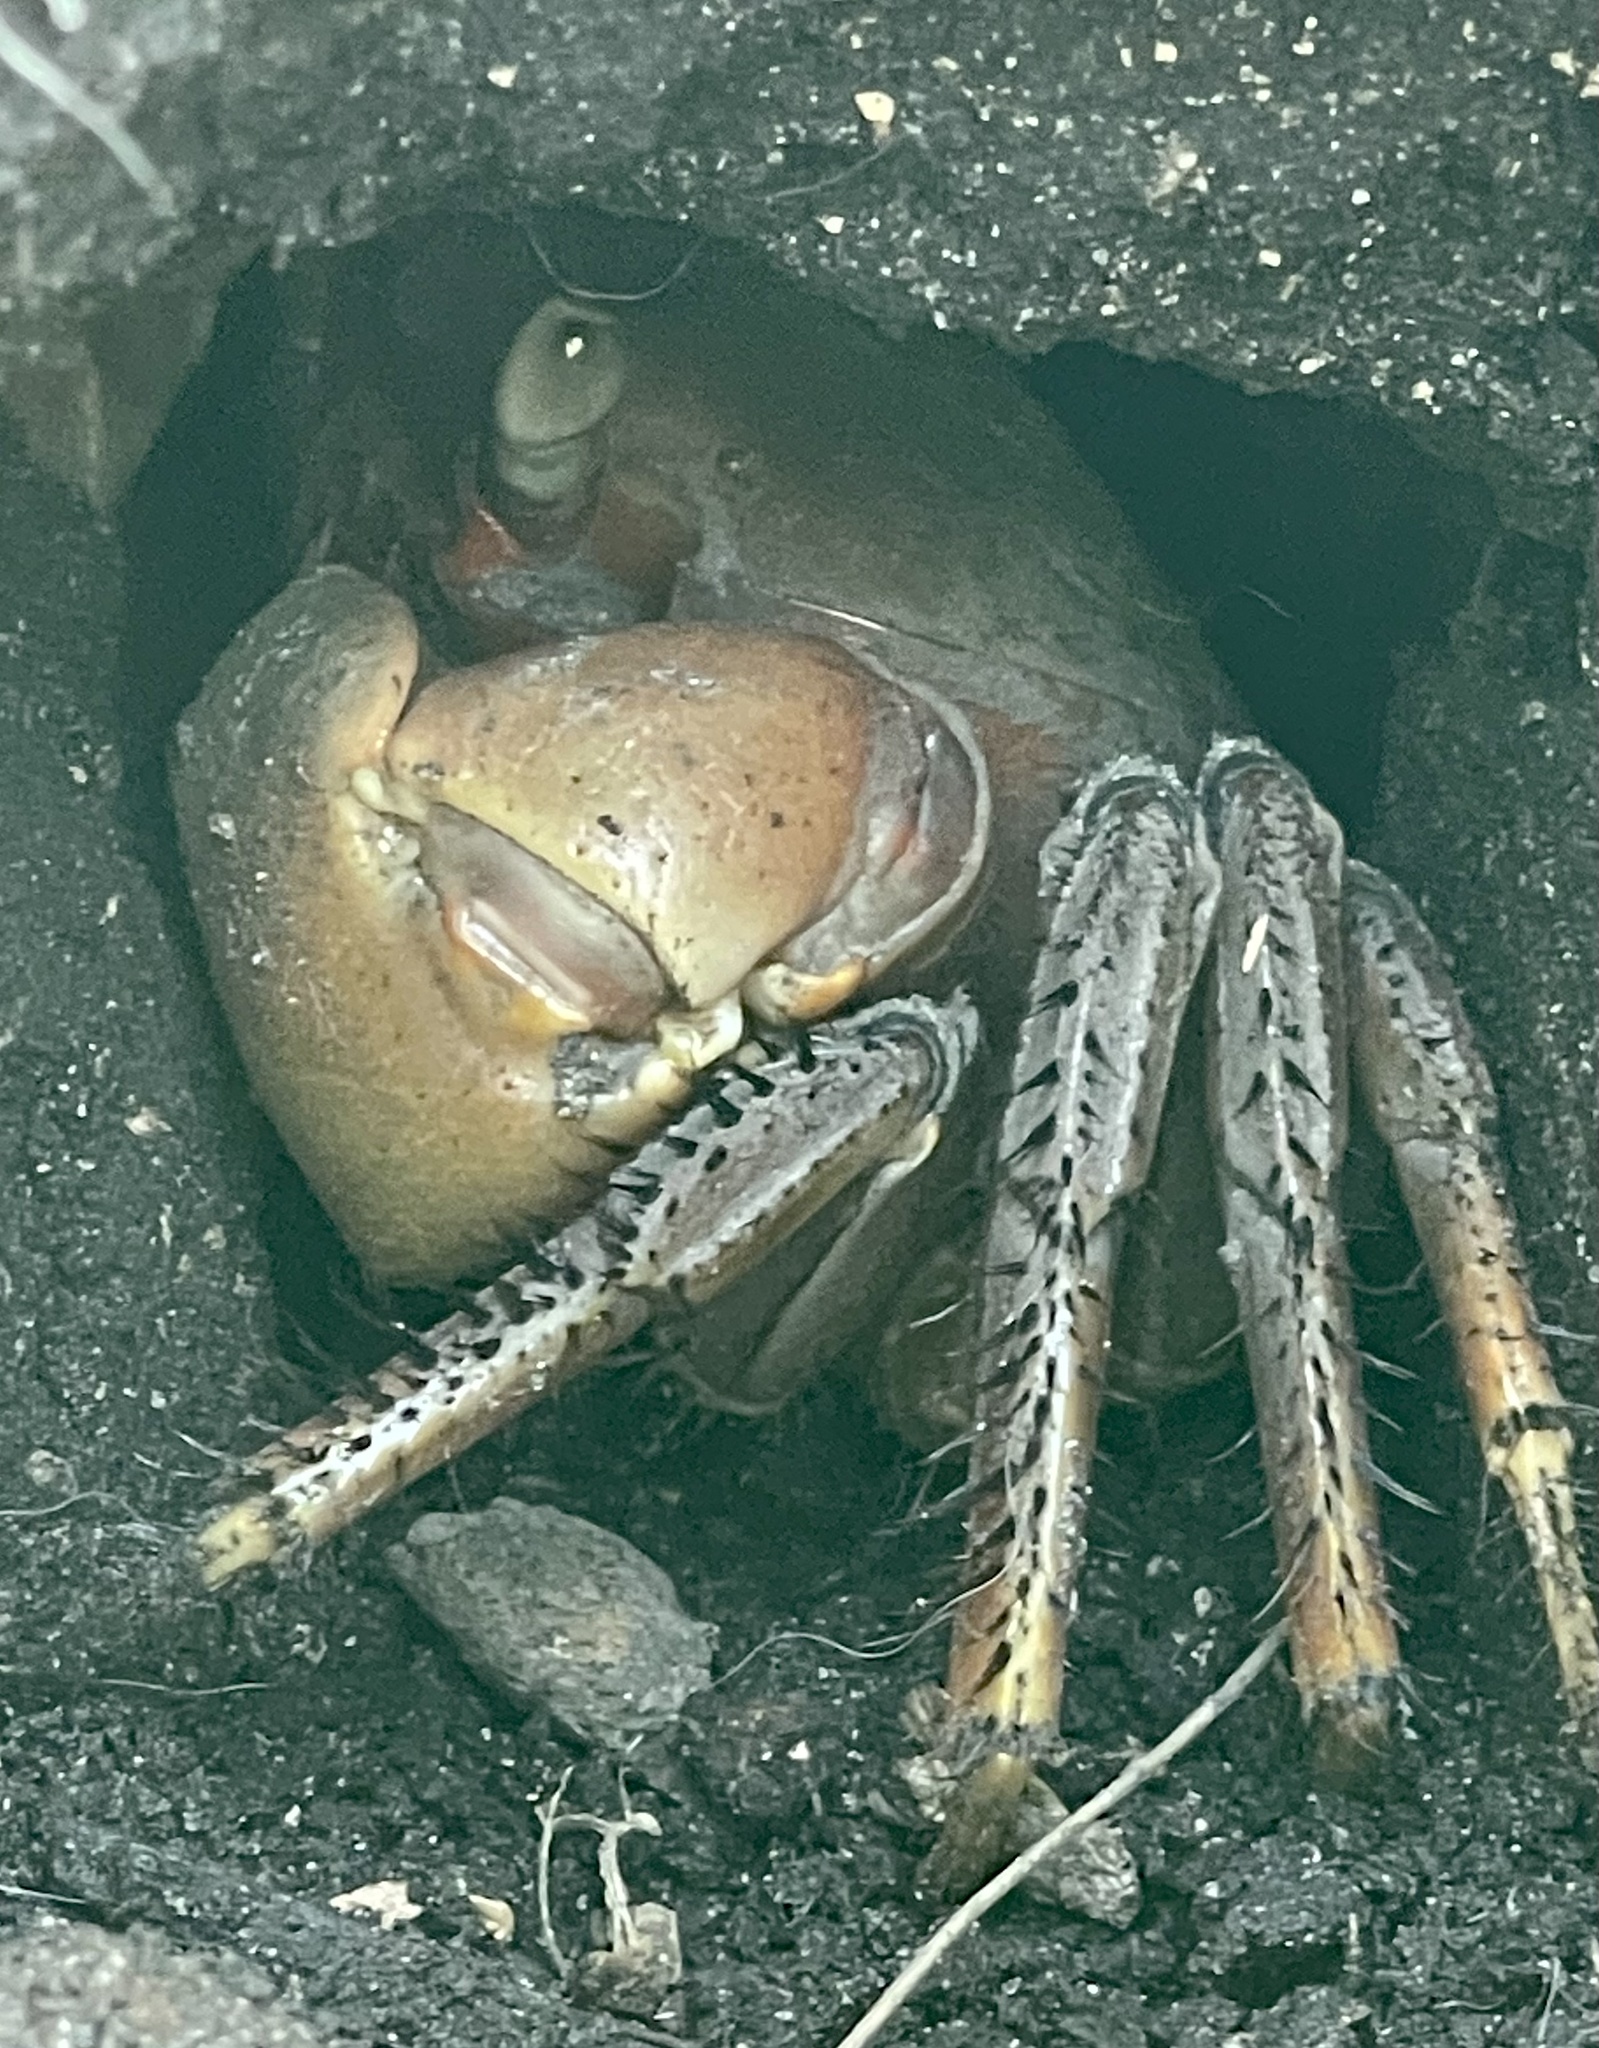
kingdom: Animalia
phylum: Arthropoda
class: Malacostraca
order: Decapoda
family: Gecarcinidae
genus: Cardisoma
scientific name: Cardisoma guanhumi
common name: Great land crab
